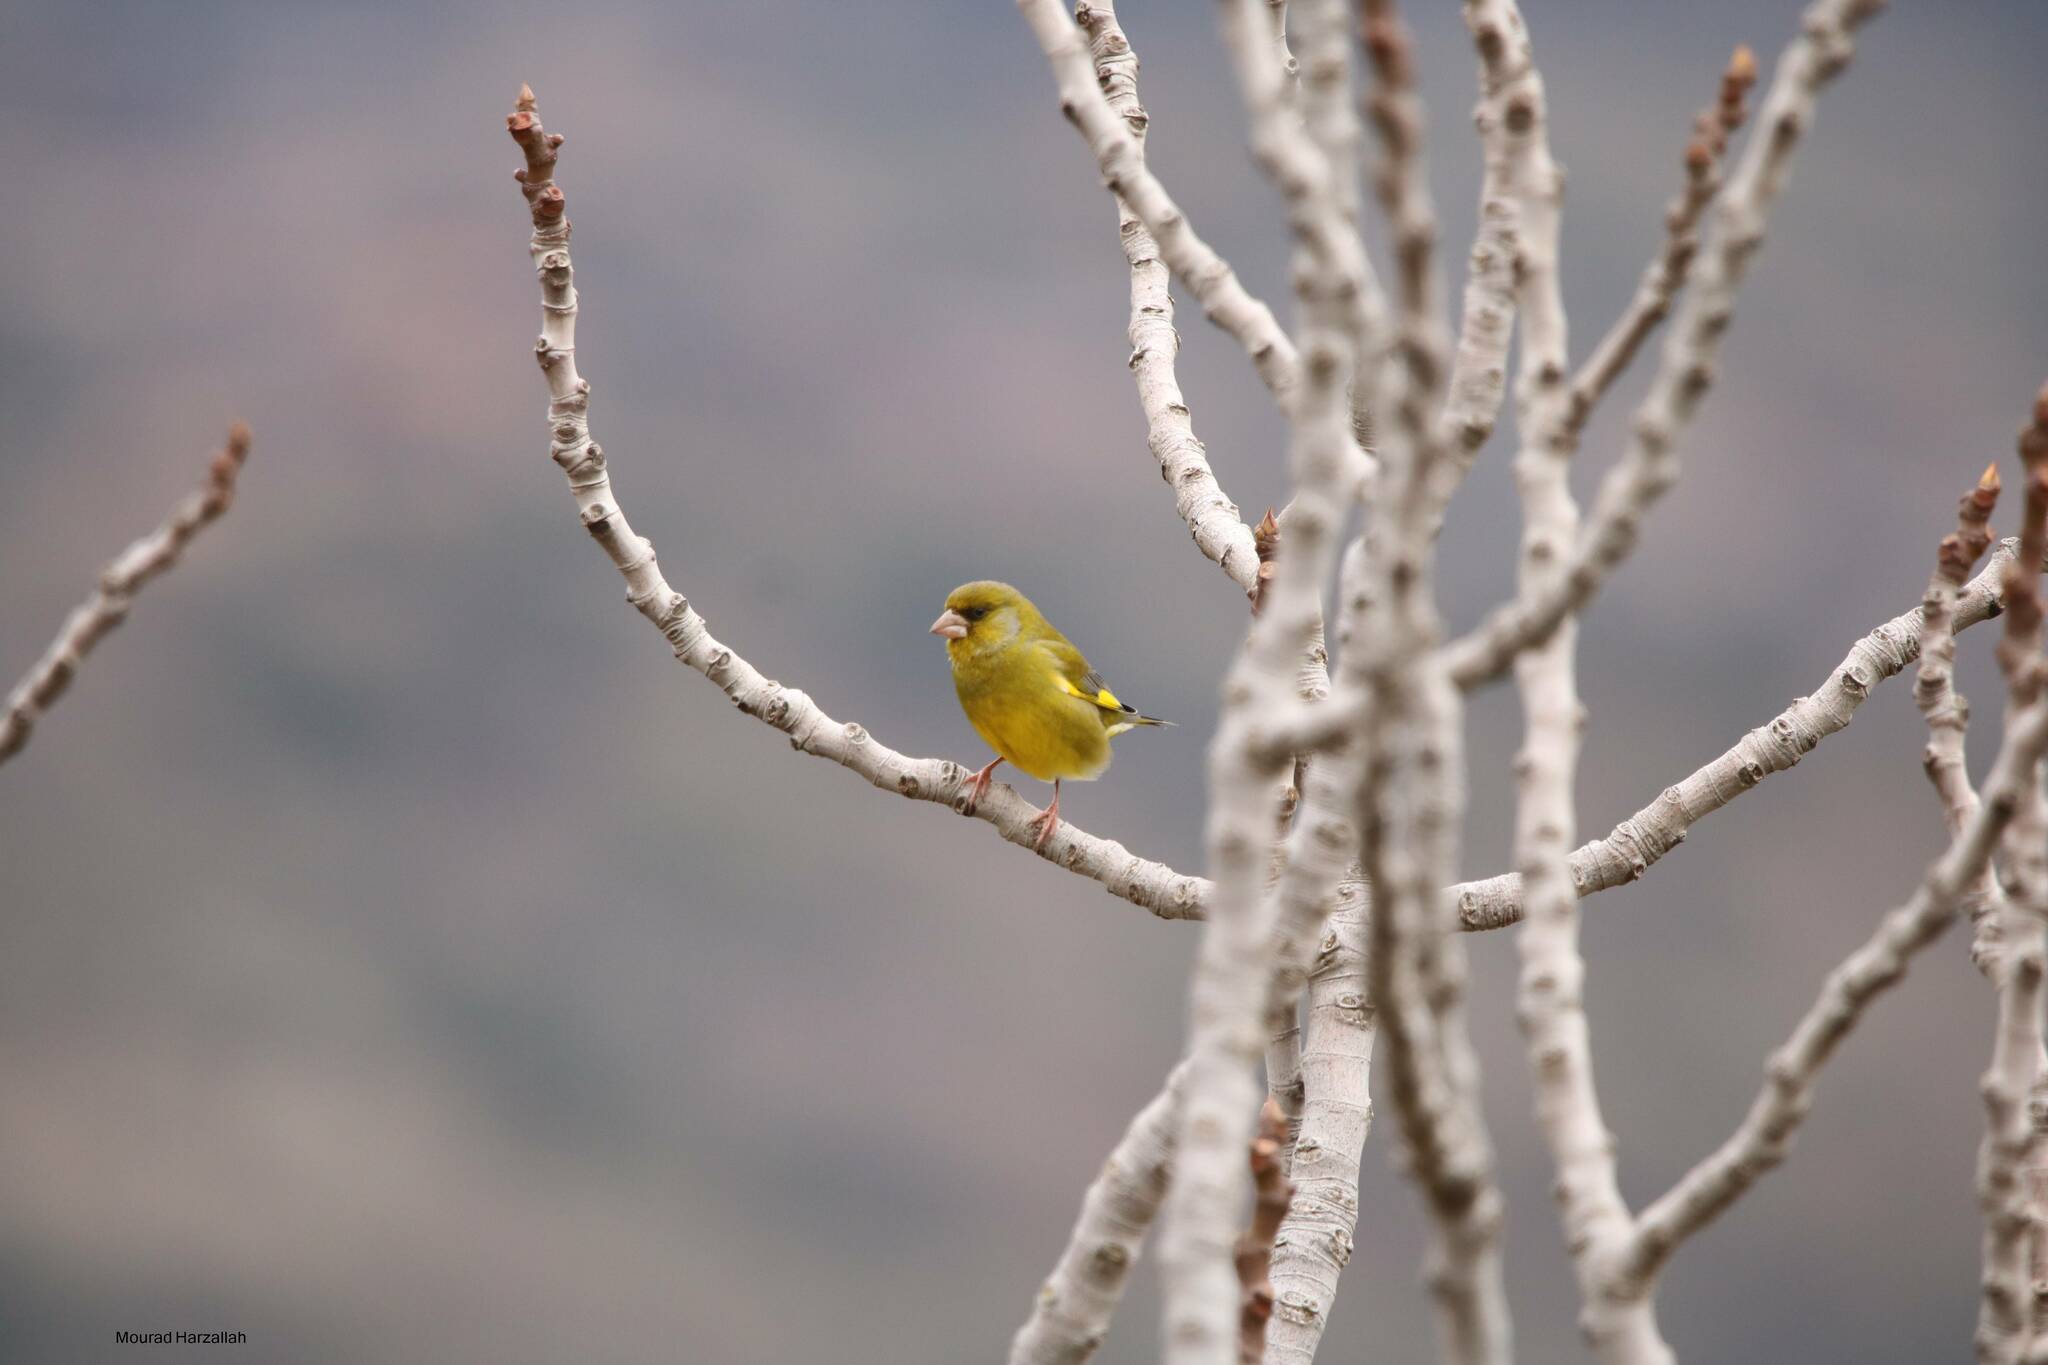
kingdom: Plantae
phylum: Tracheophyta
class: Liliopsida
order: Poales
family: Poaceae
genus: Chloris
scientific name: Chloris chloris
